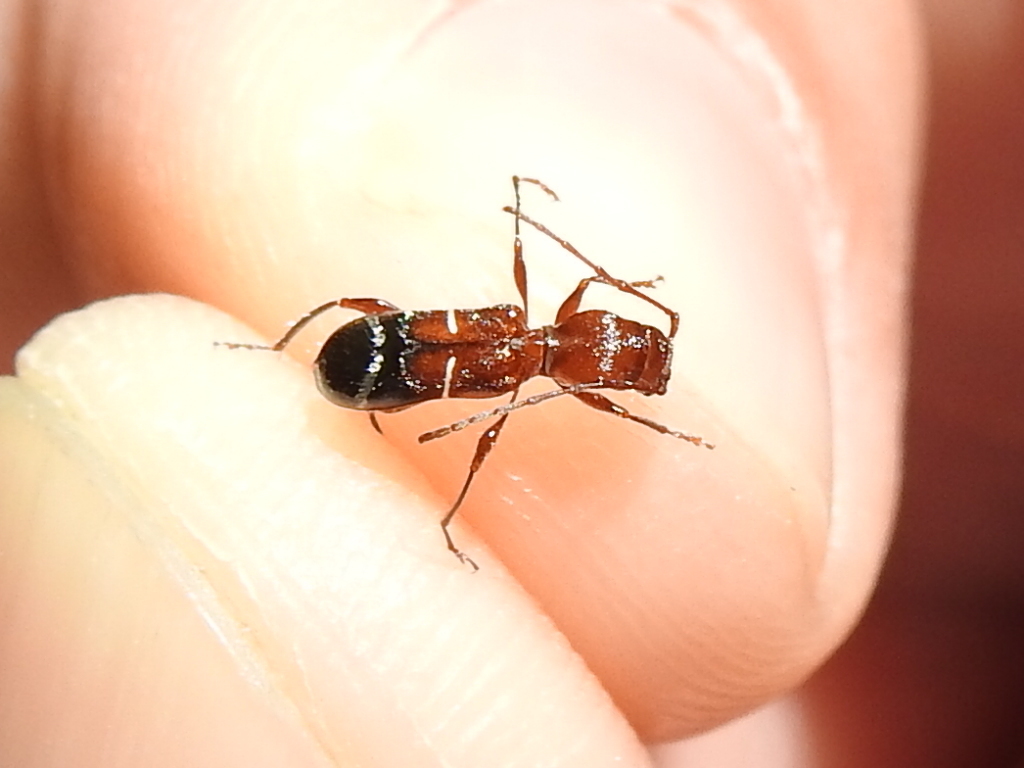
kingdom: Animalia
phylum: Arthropoda
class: Insecta
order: Coleoptera
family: Cerambycidae
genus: Euderces
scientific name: Euderces pini
